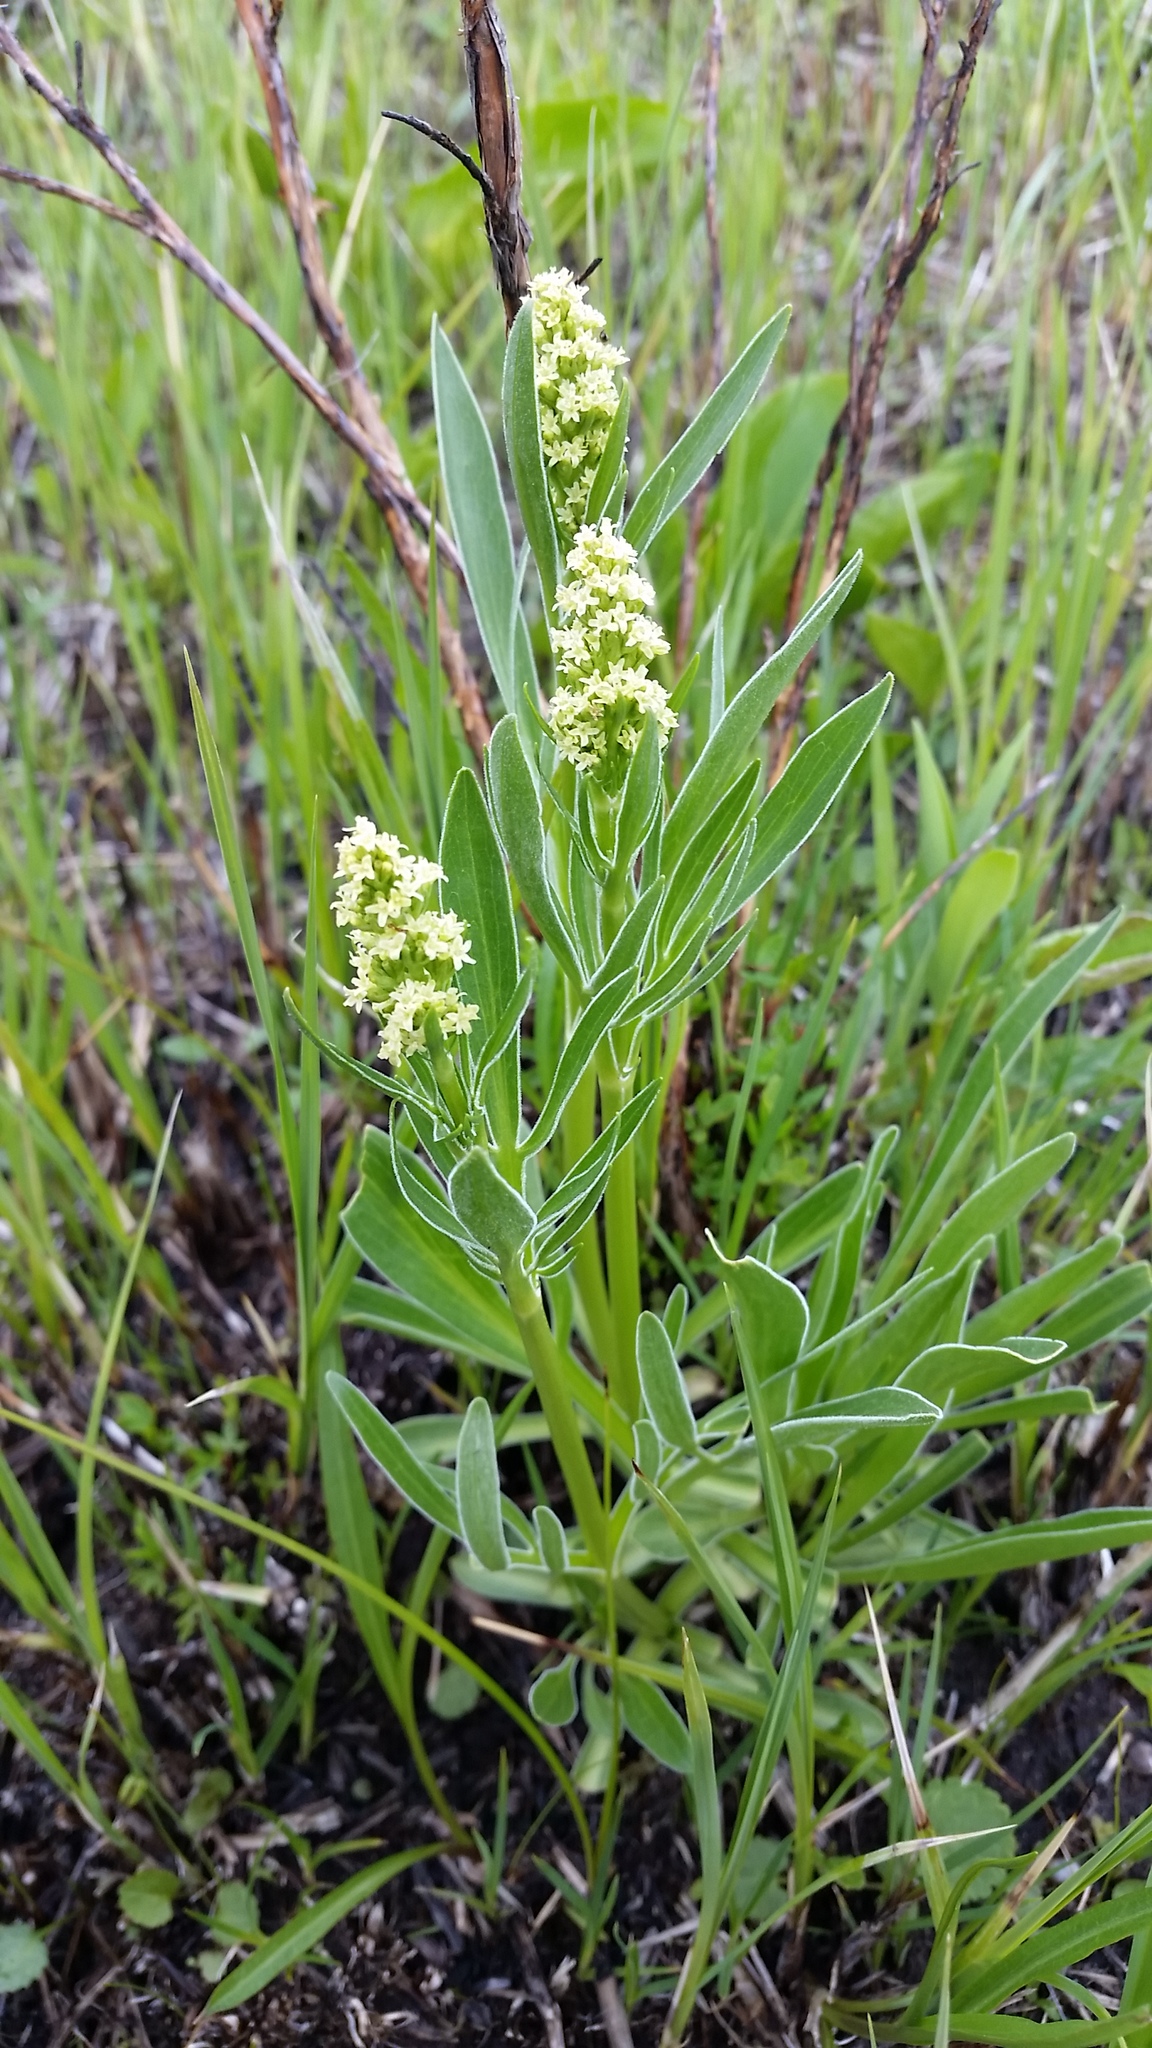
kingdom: Plantae
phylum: Tracheophyta
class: Magnoliopsida
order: Dipsacales
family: Caprifoliaceae
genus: Valeriana
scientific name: Valeriana edulis
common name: Taproot valerian
